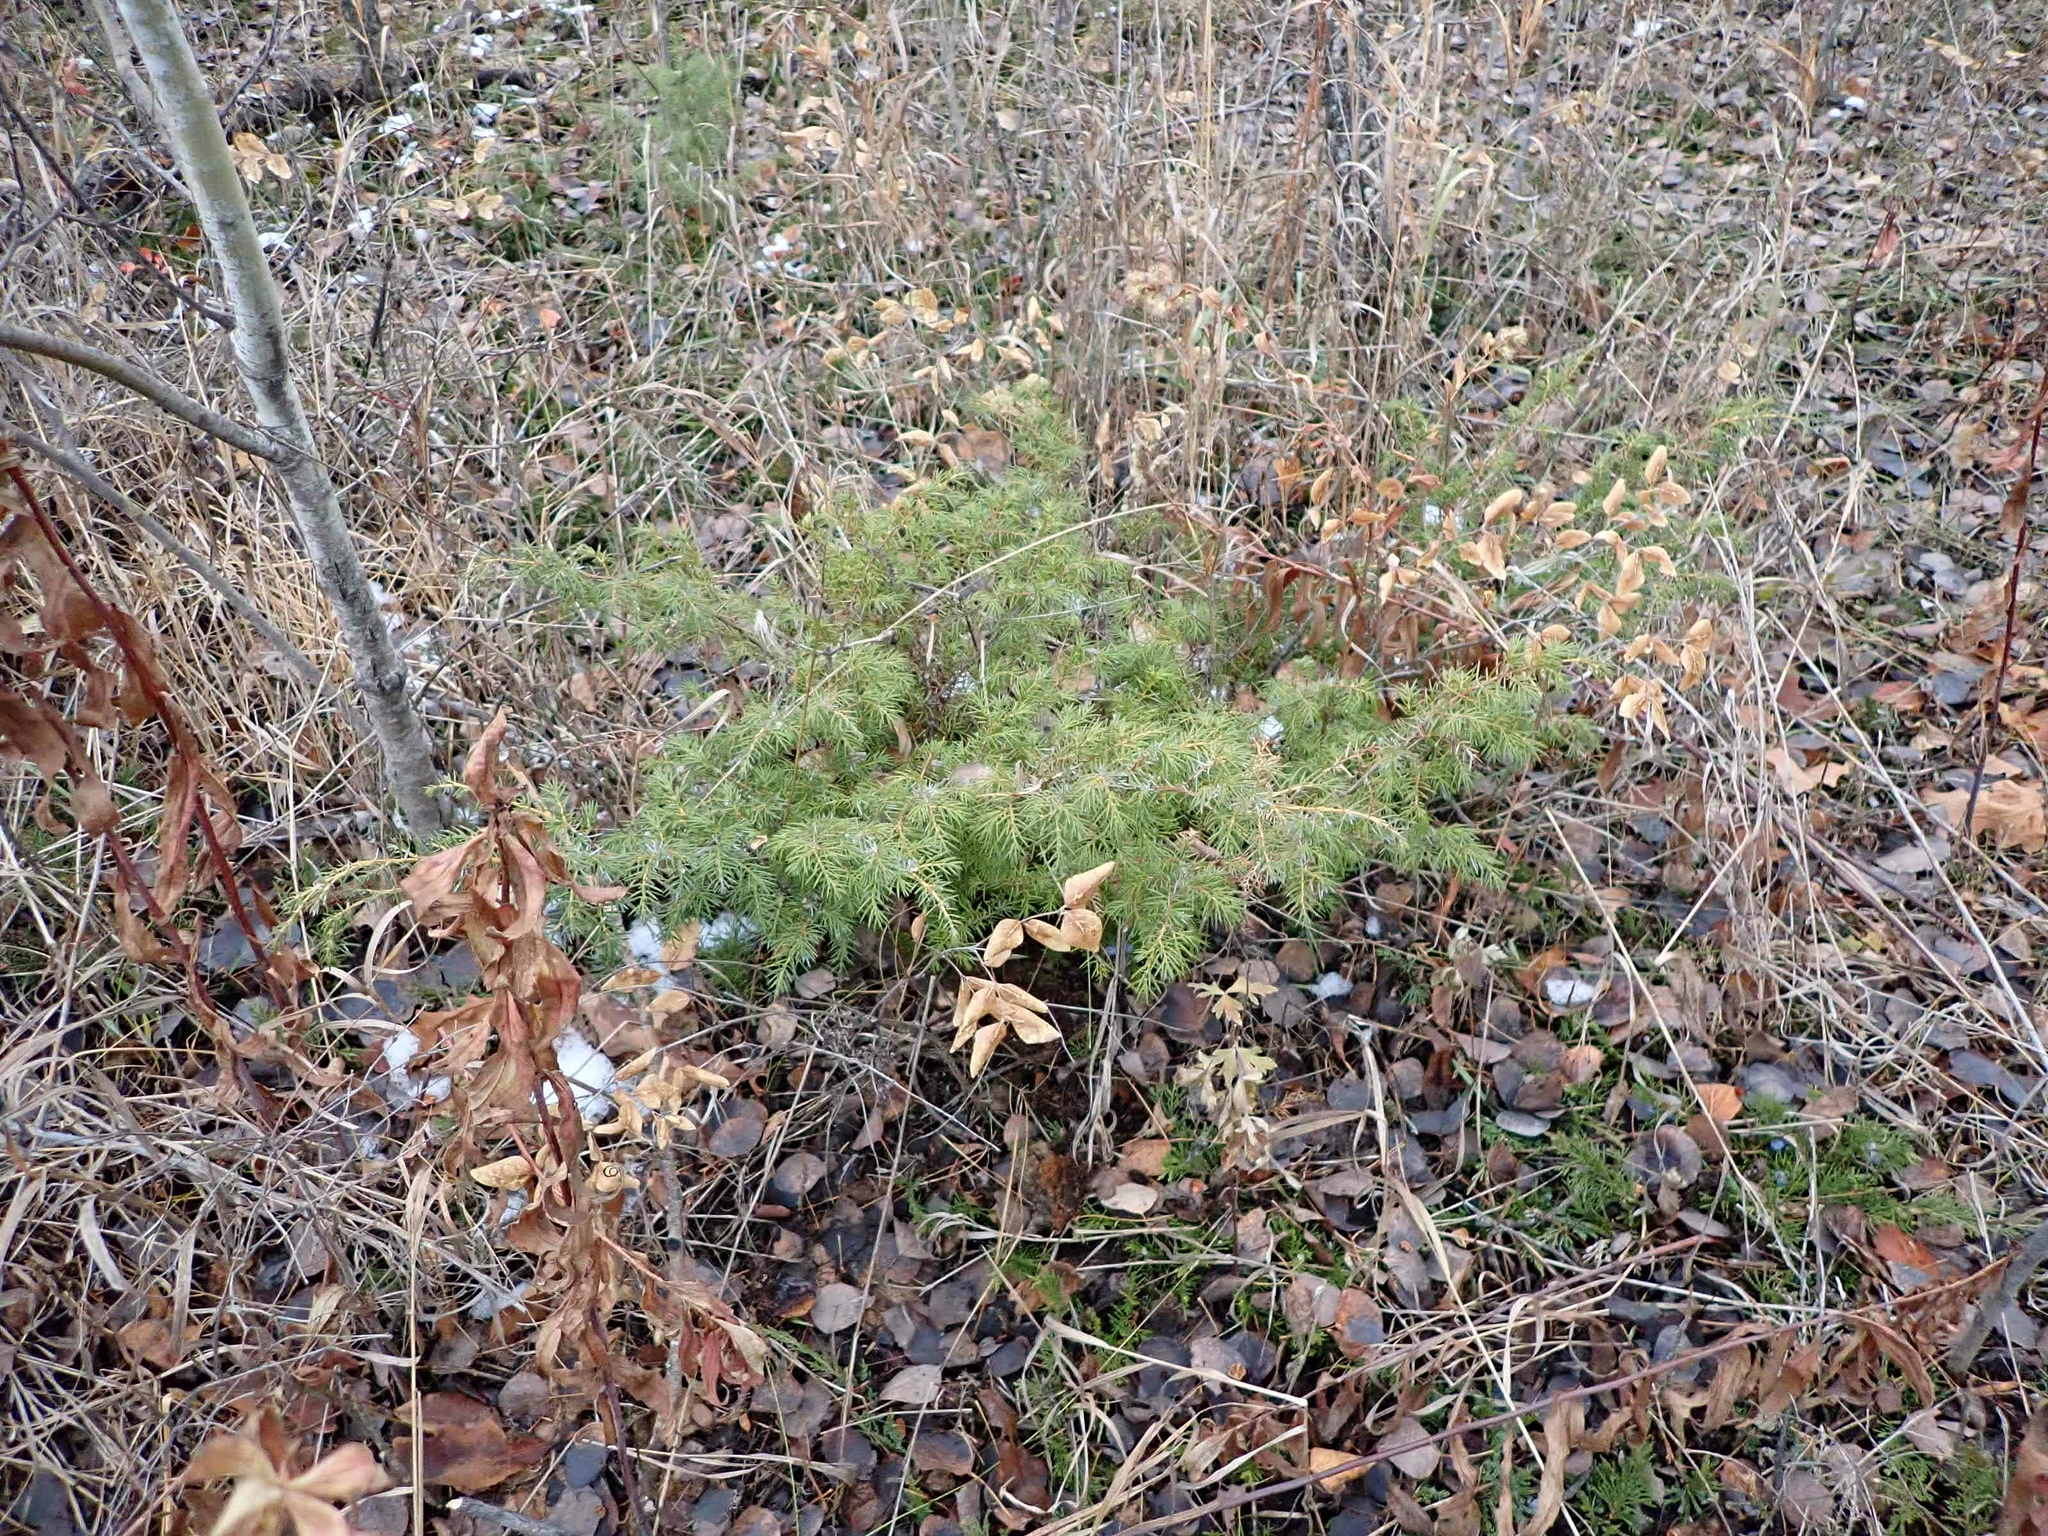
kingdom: Plantae
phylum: Tracheophyta
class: Pinopsida
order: Pinales
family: Cupressaceae
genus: Juniperus
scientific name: Juniperus communis
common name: Common juniper
